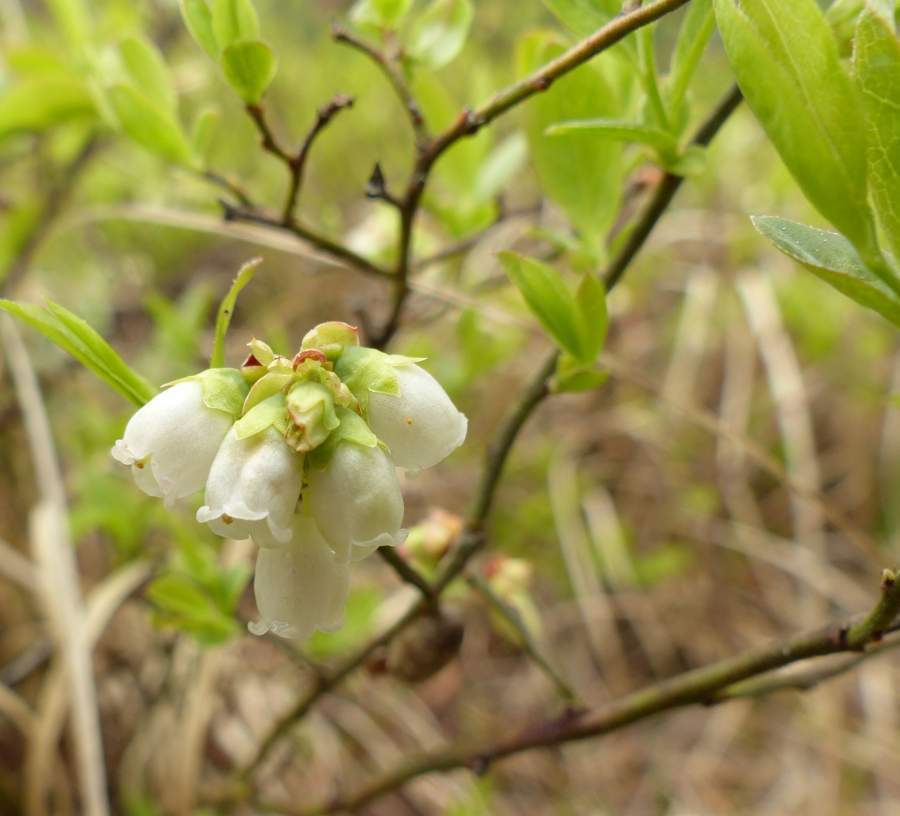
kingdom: Plantae
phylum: Tracheophyta
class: Magnoliopsida
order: Ericales
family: Ericaceae
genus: Vaccinium
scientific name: Vaccinium angustifolium
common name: Early lowbush blueberry
